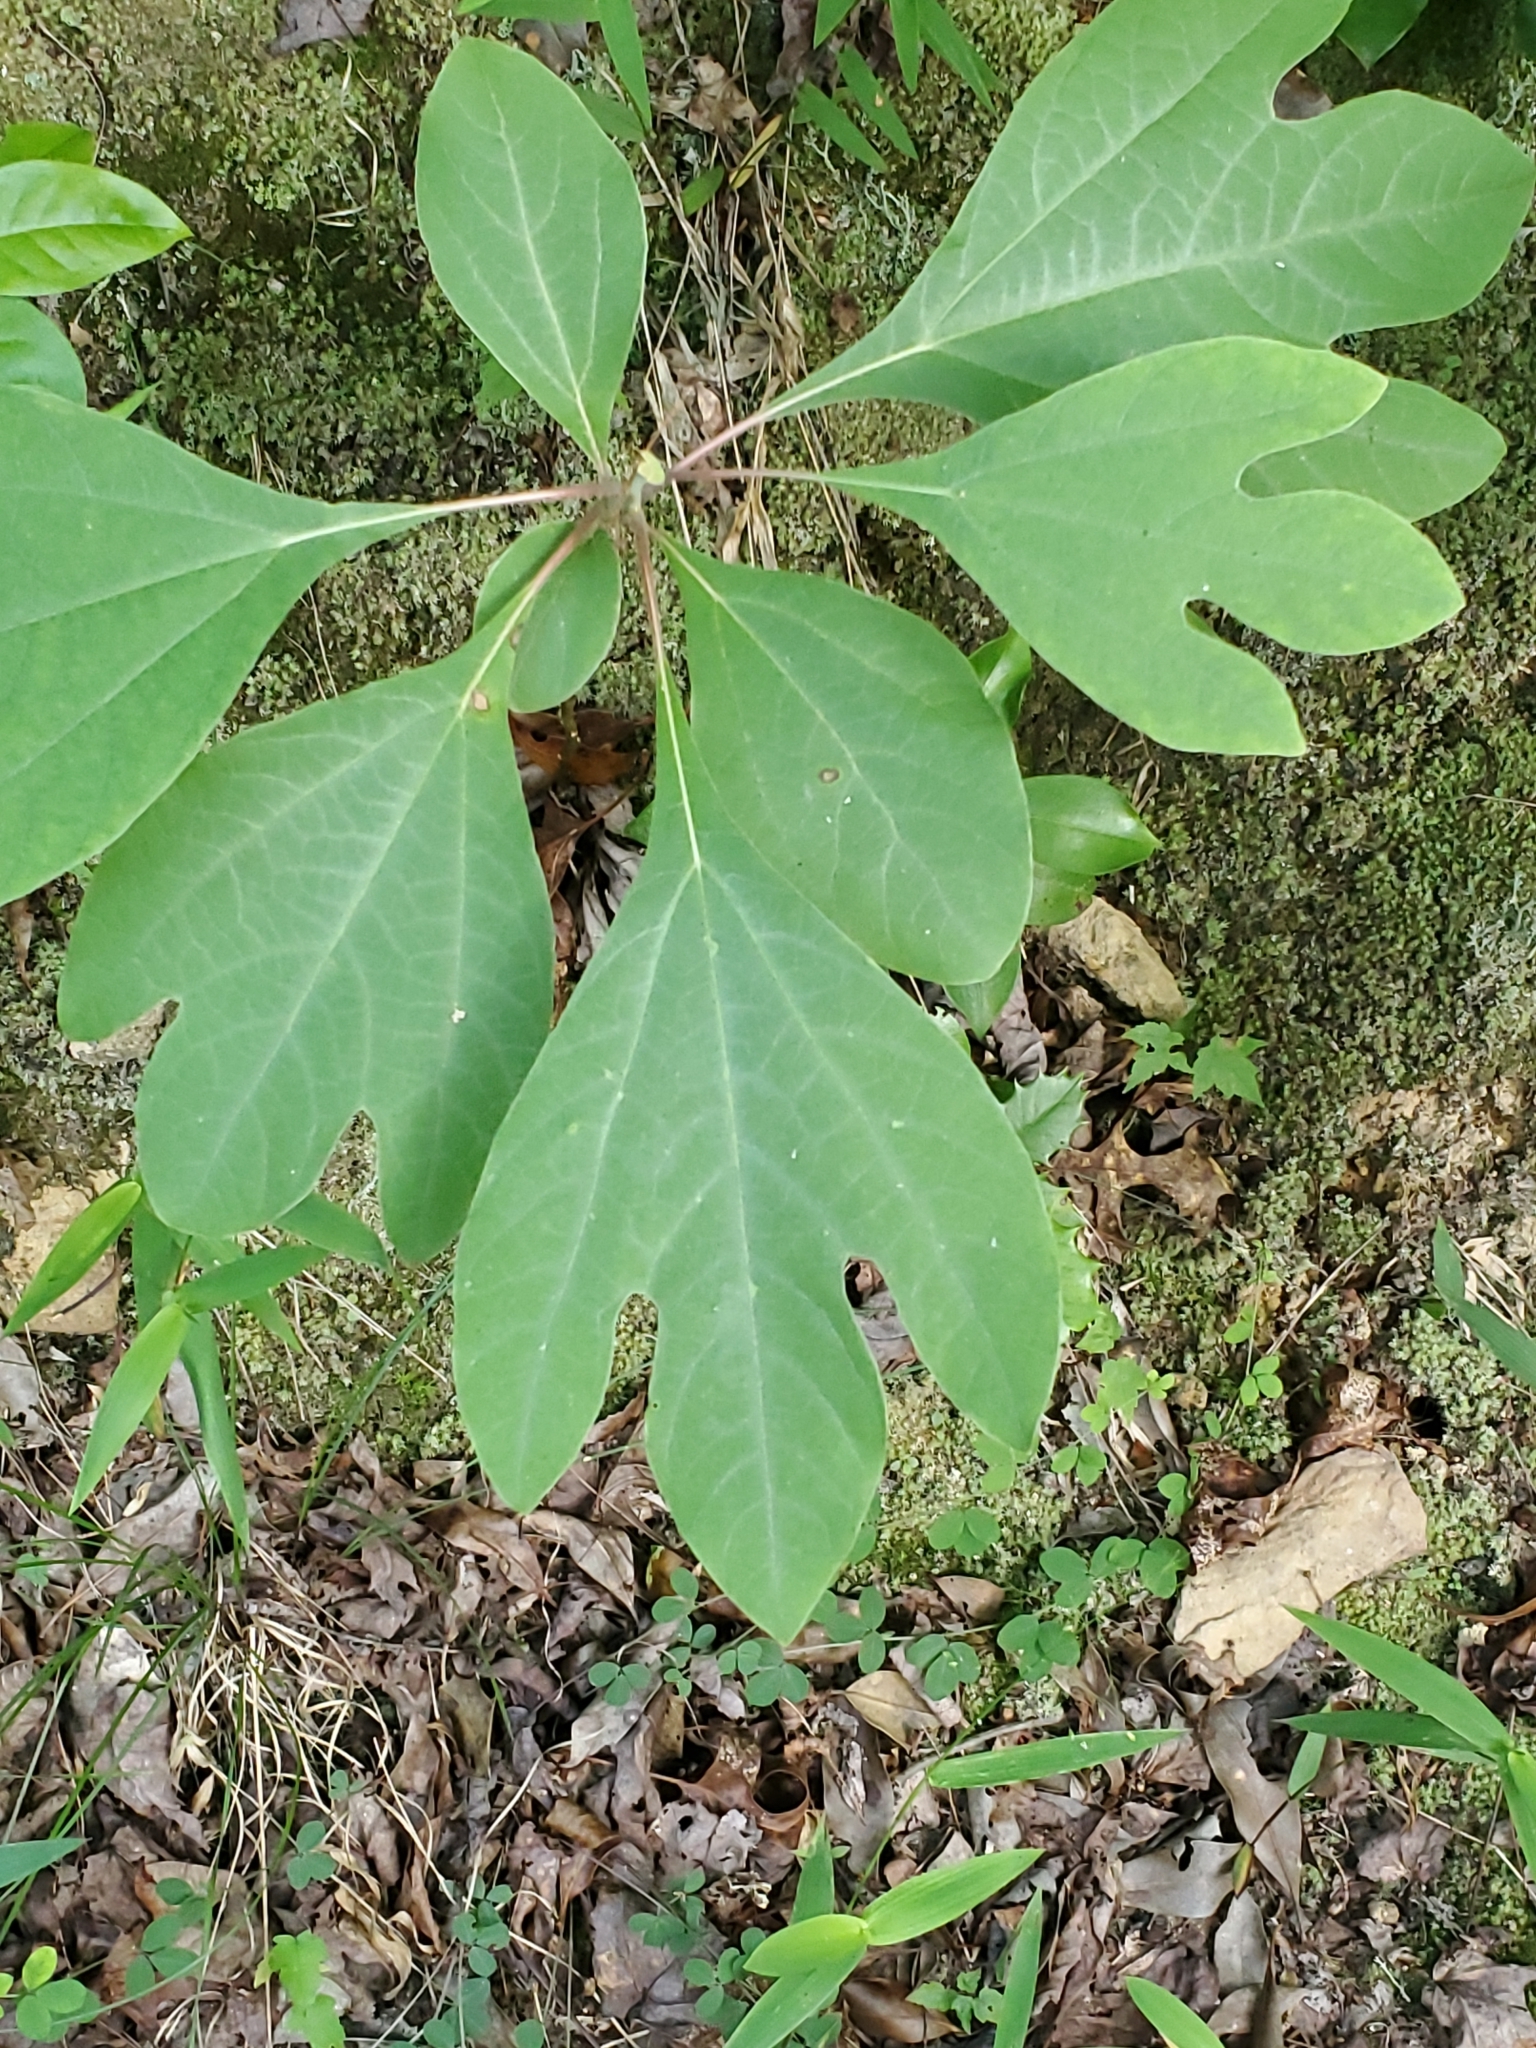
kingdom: Plantae
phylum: Tracheophyta
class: Magnoliopsida
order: Laurales
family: Lauraceae
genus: Sassafras
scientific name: Sassafras albidum
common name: Sassafras
